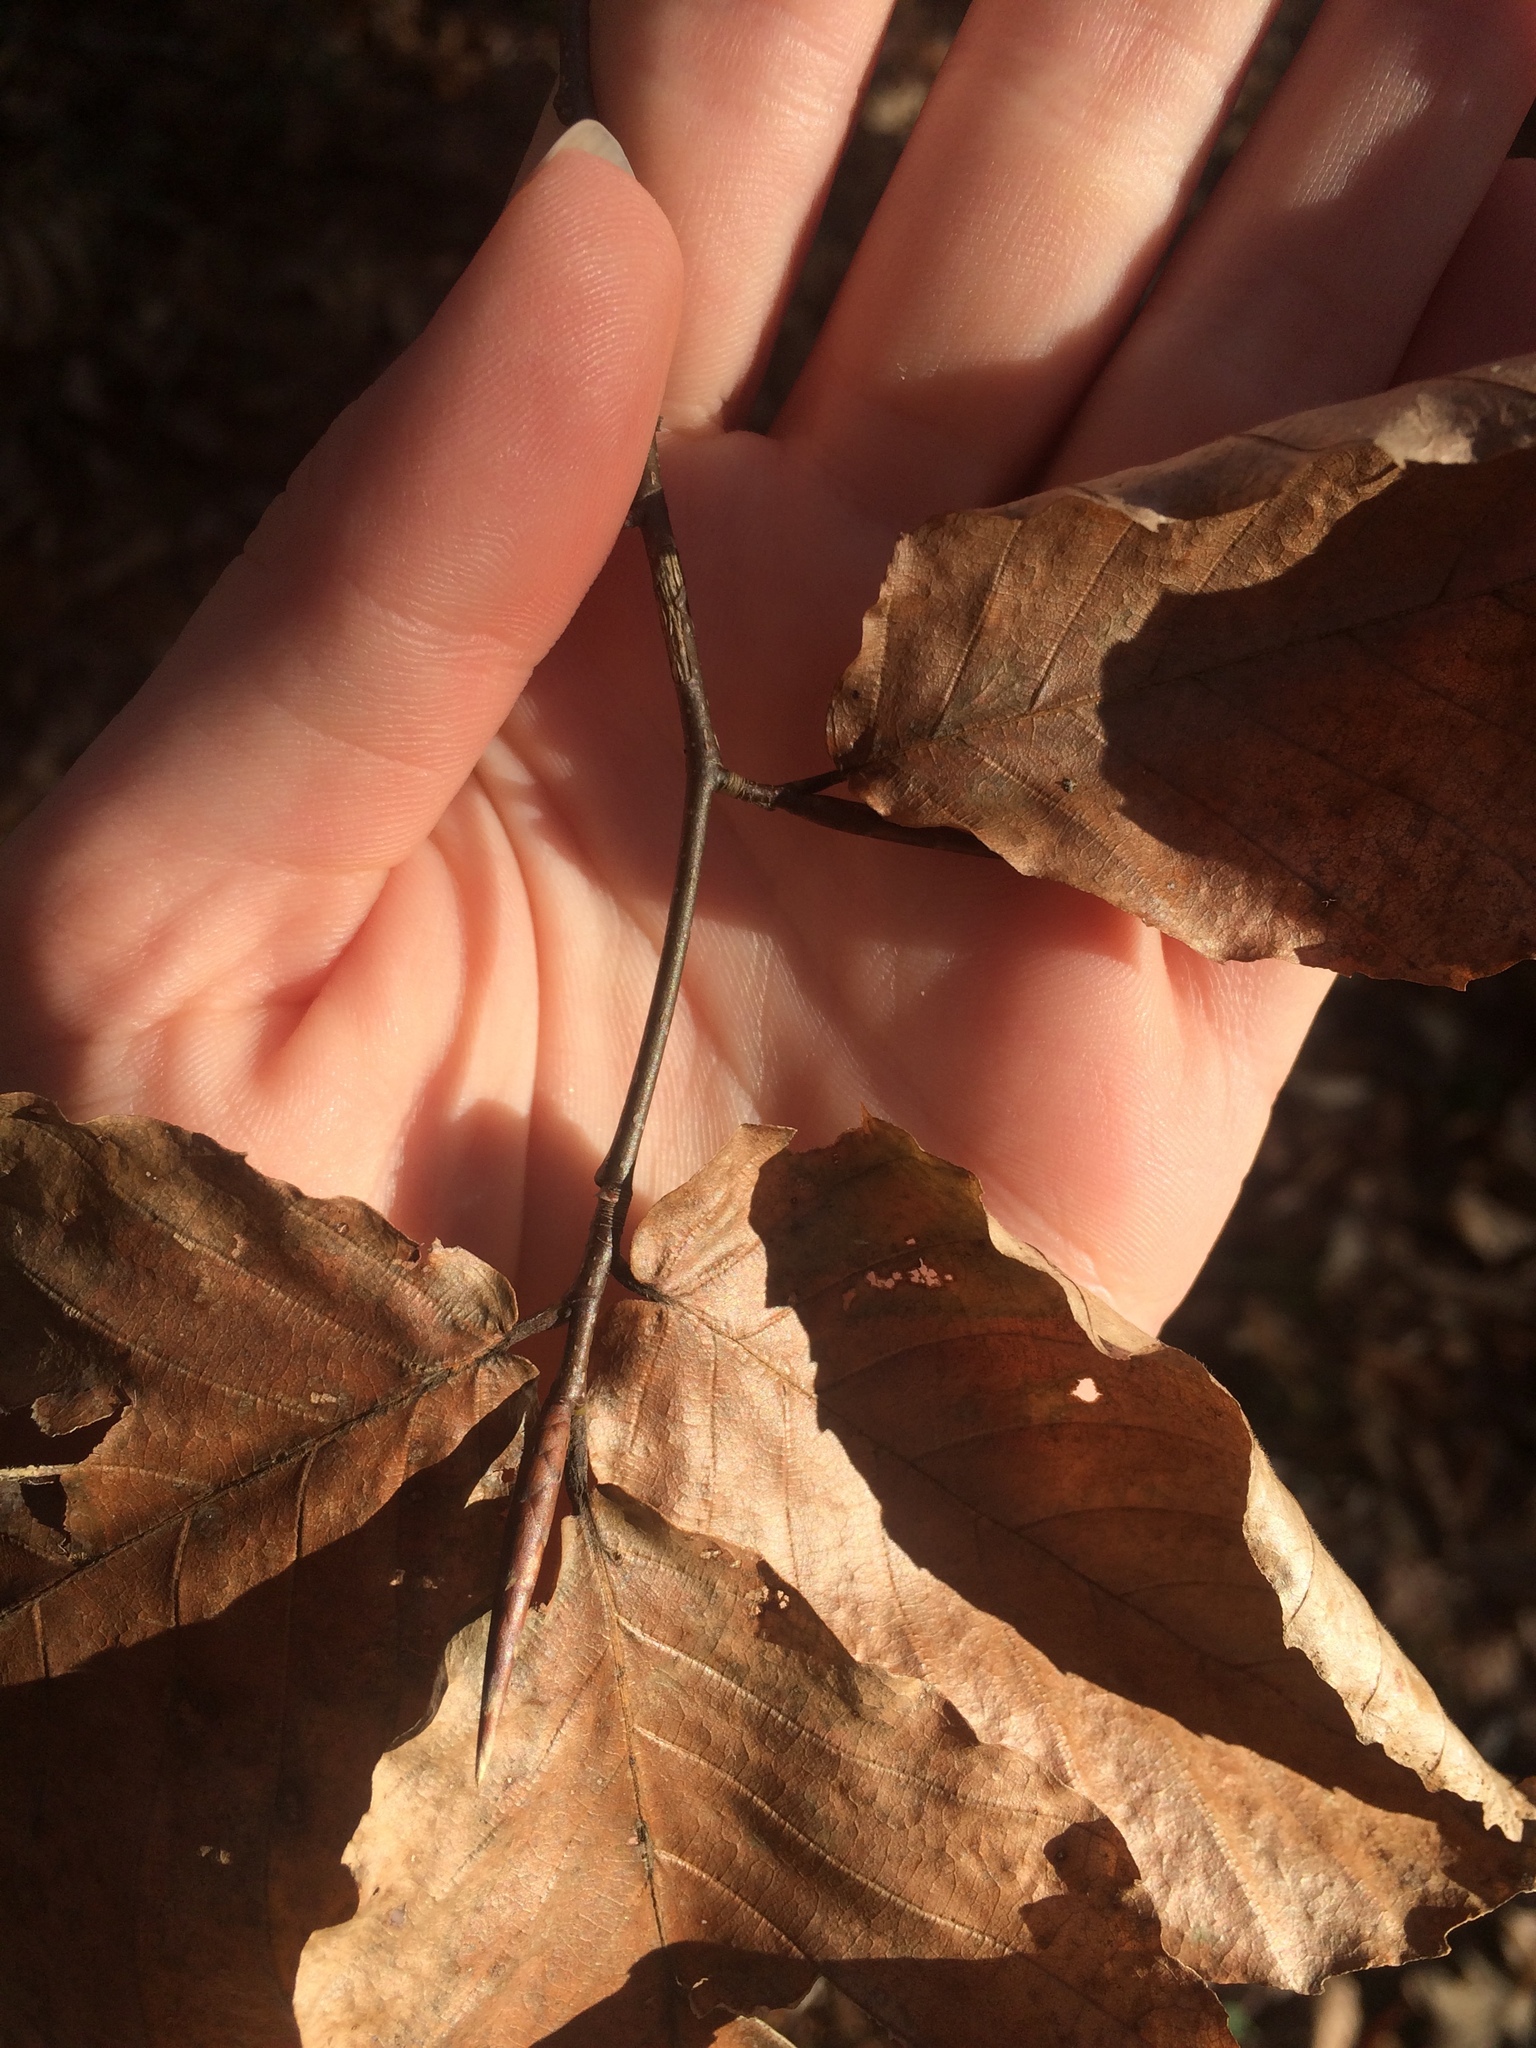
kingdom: Plantae
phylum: Tracheophyta
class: Magnoliopsida
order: Fagales
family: Fagaceae
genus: Fagus
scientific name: Fagus grandifolia
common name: American beech
